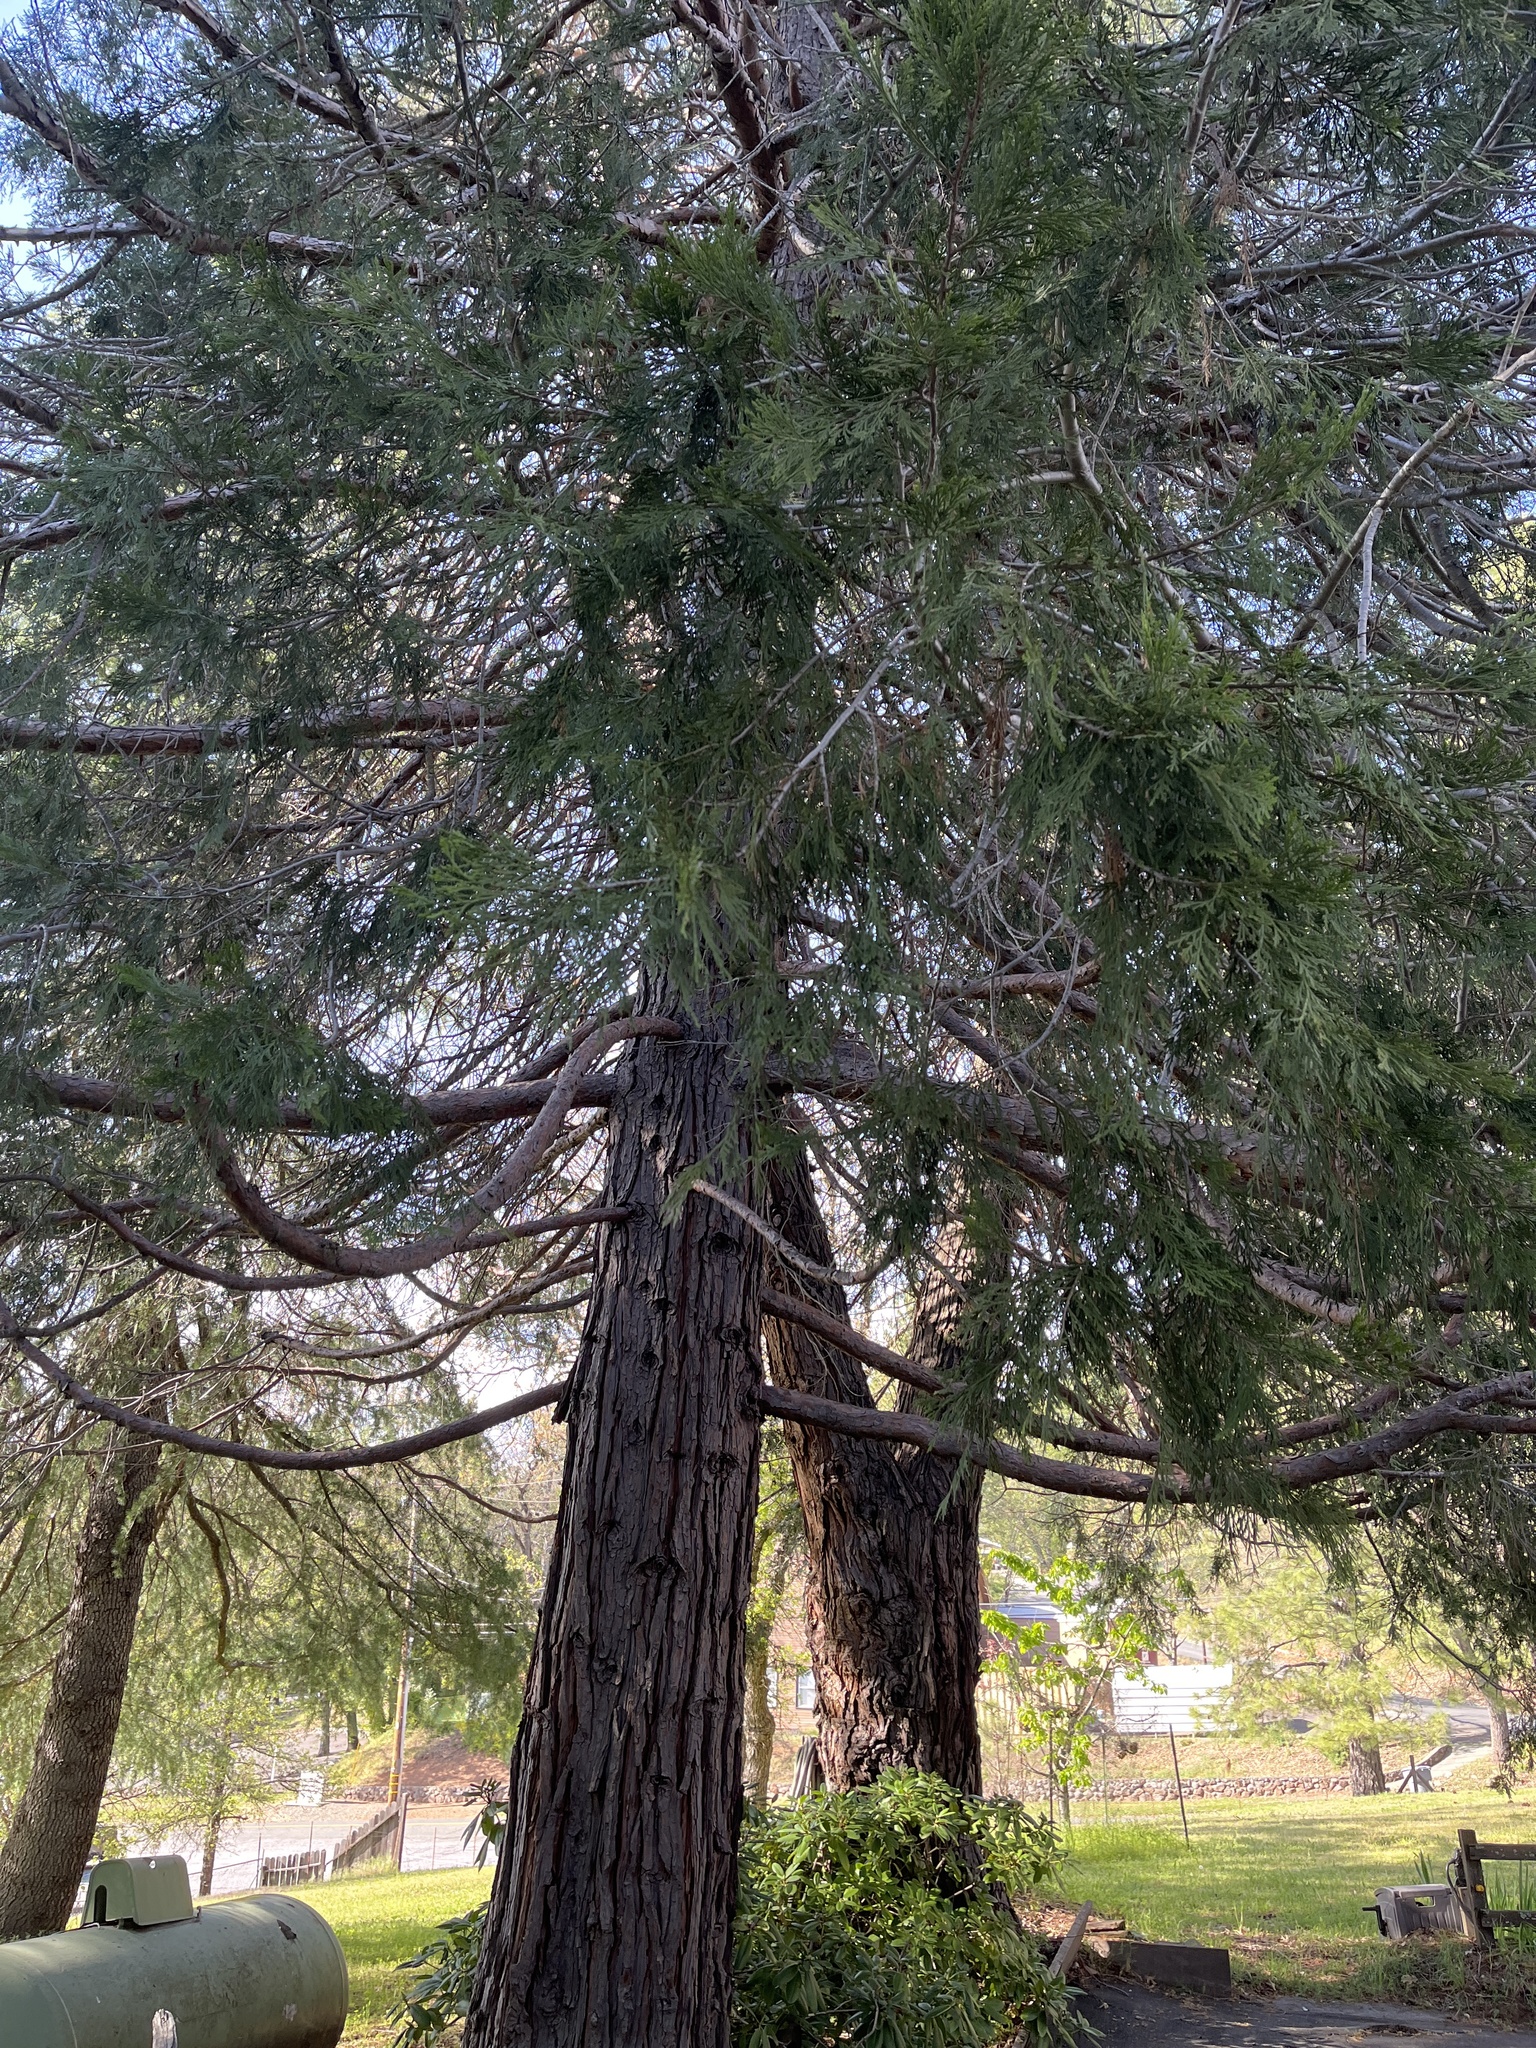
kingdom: Plantae
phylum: Tracheophyta
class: Pinopsida
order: Pinales
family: Cupressaceae
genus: Calocedrus
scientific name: Calocedrus decurrens
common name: Californian incense-cedar
